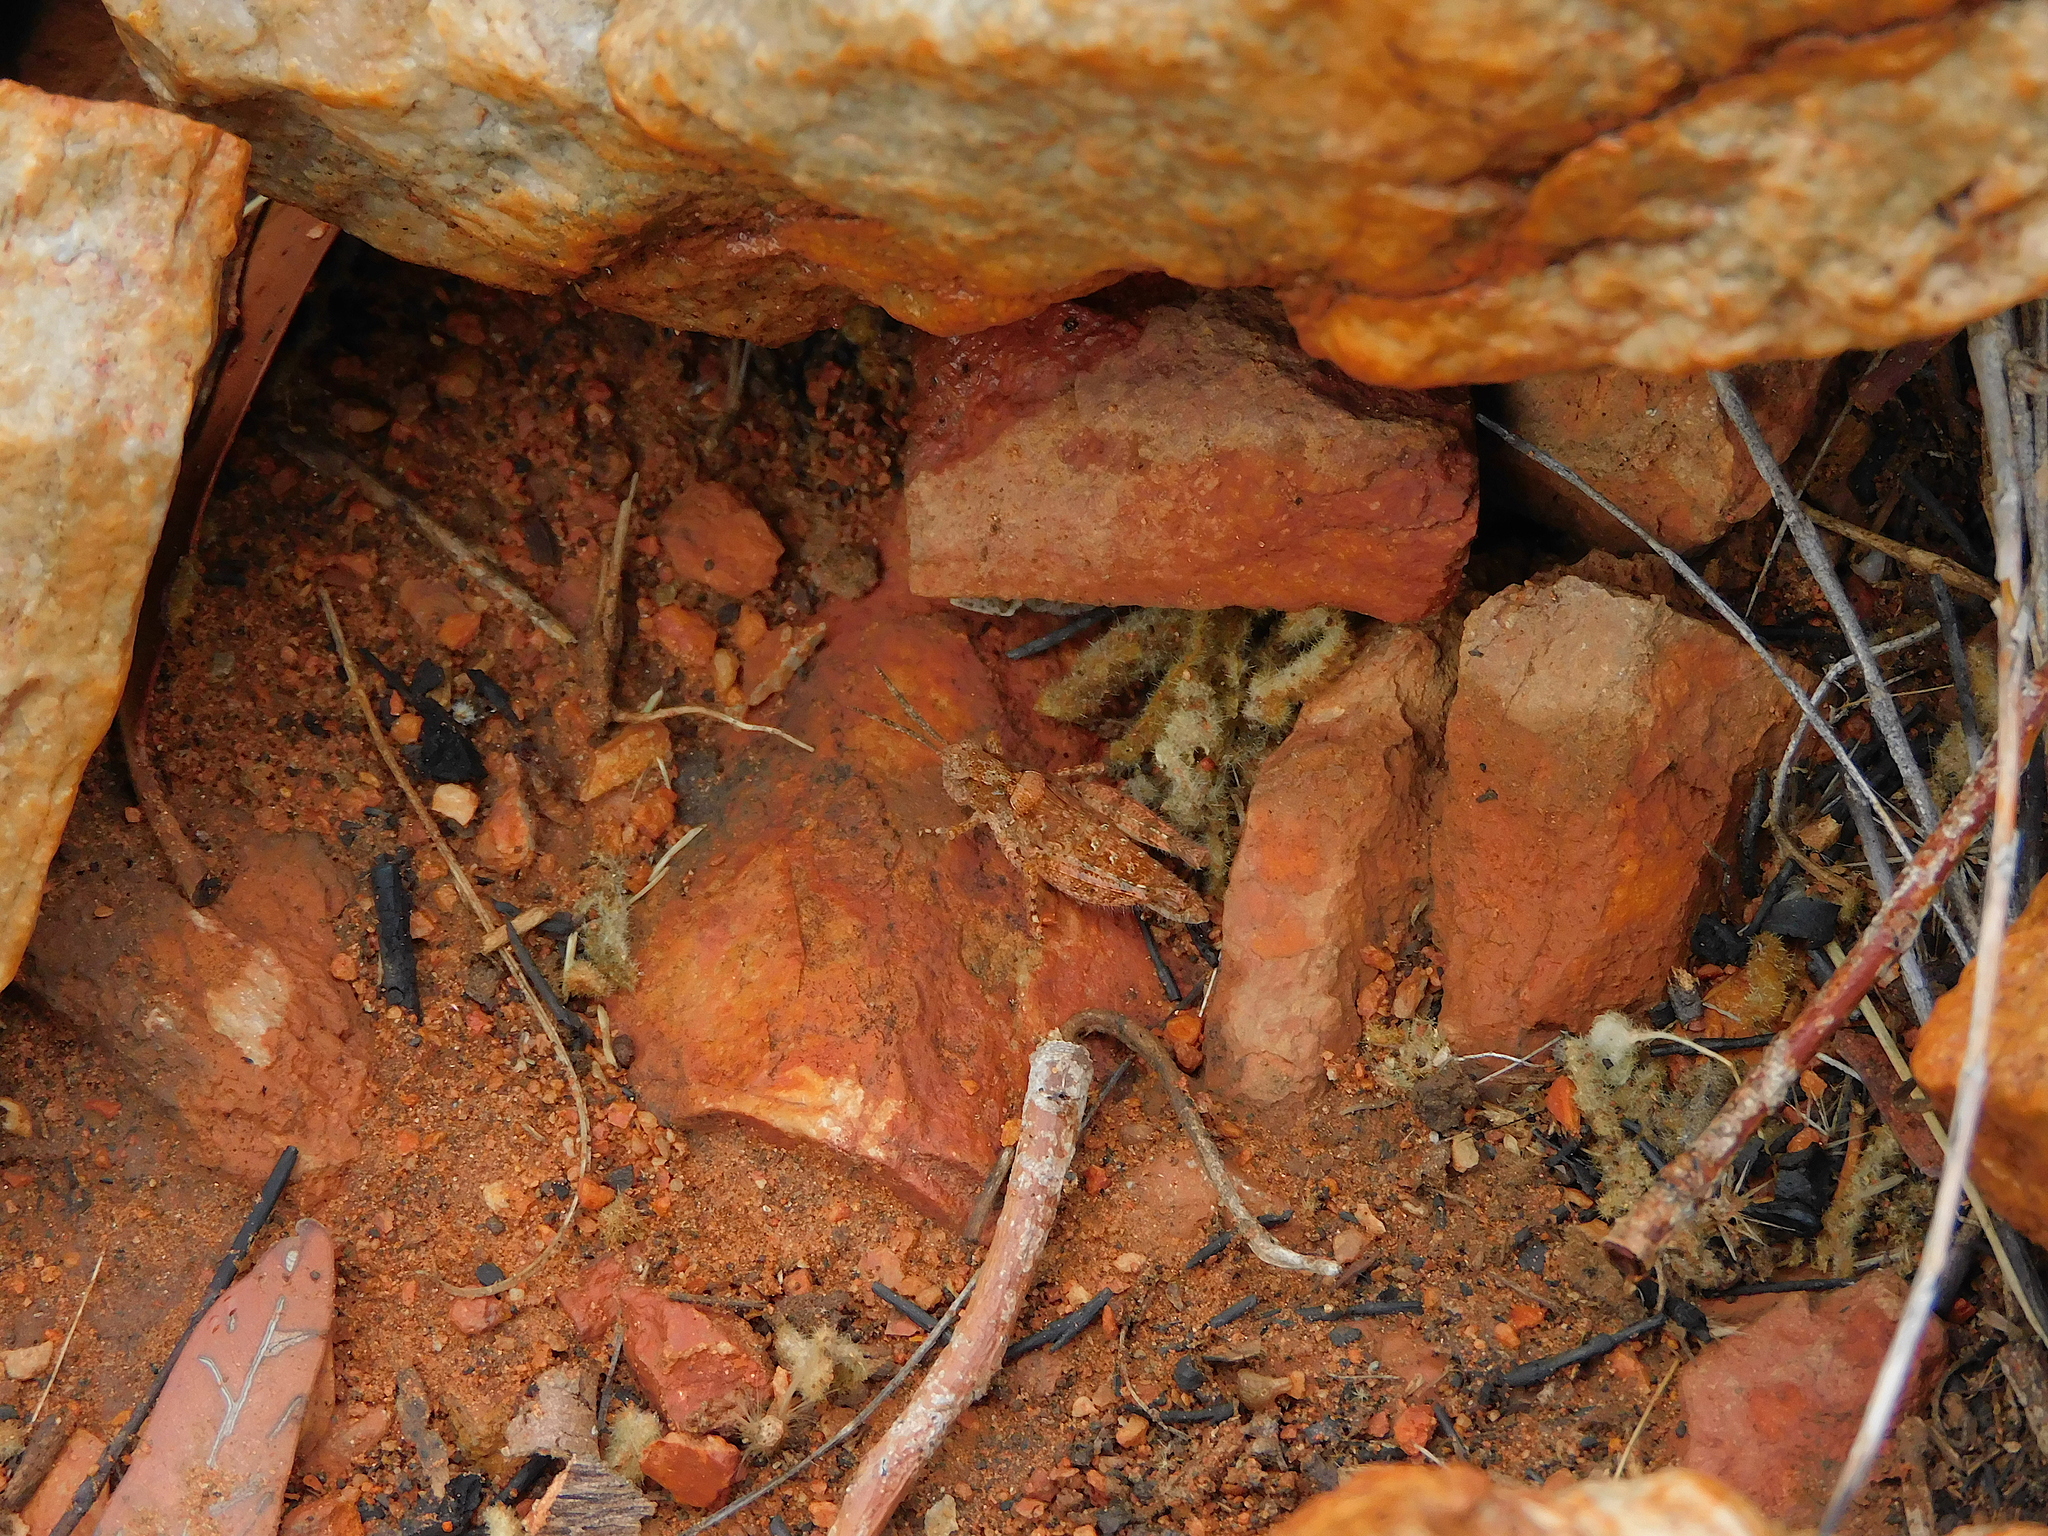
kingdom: Animalia
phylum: Arthropoda
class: Insecta
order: Orthoptera
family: Acrididae
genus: Macrazelota
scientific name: Macrazelota cervina
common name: Common pig-head
